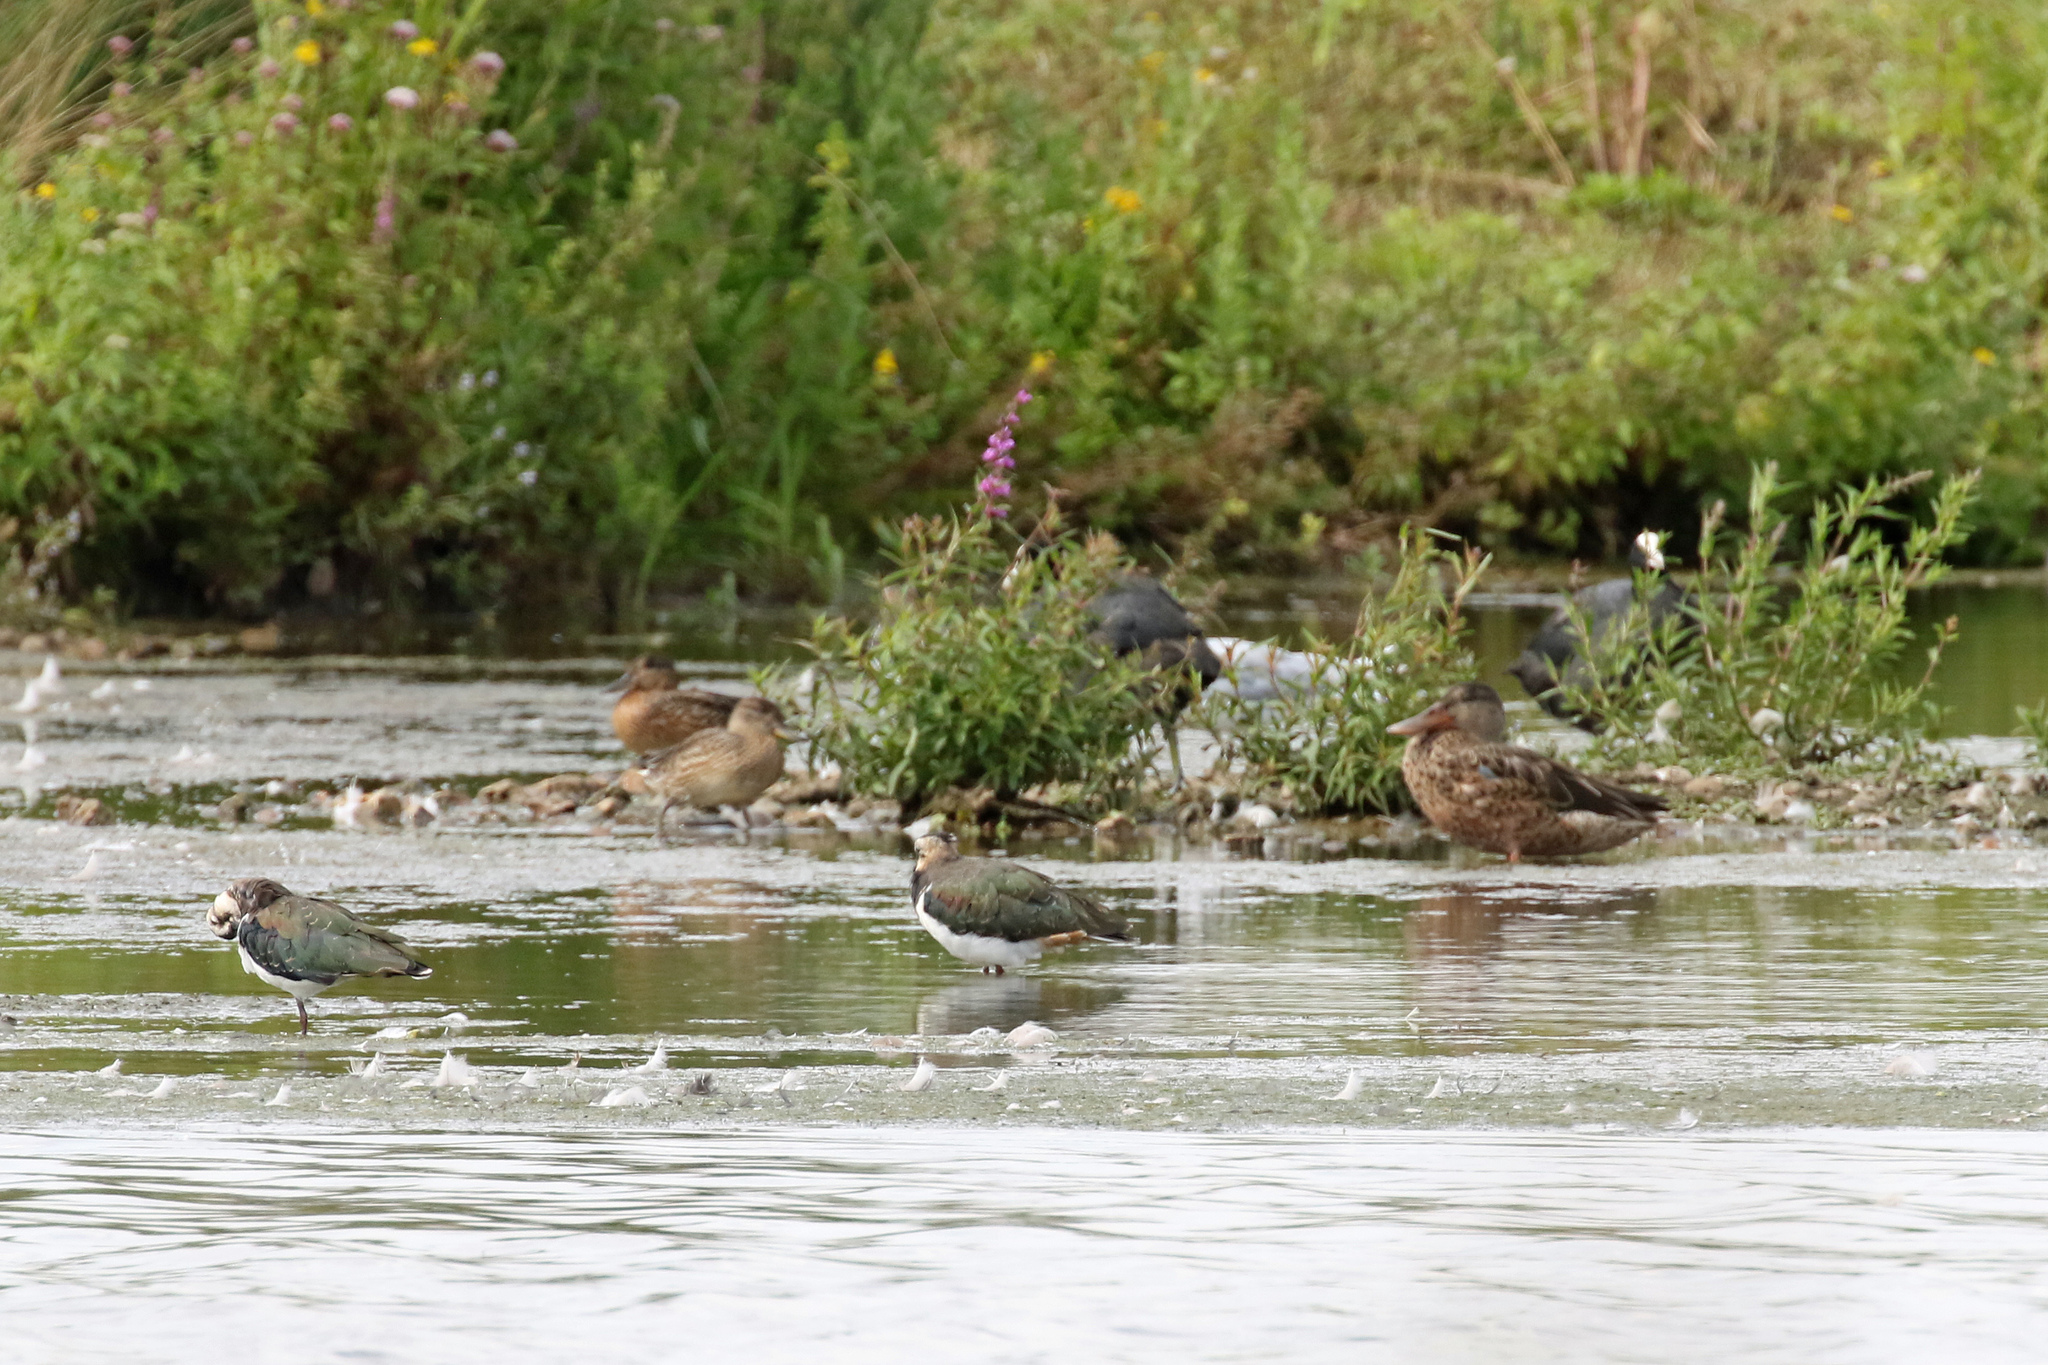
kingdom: Animalia
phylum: Chordata
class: Aves
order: Charadriiformes
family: Charadriidae
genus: Vanellus
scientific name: Vanellus vanellus
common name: Northern lapwing
